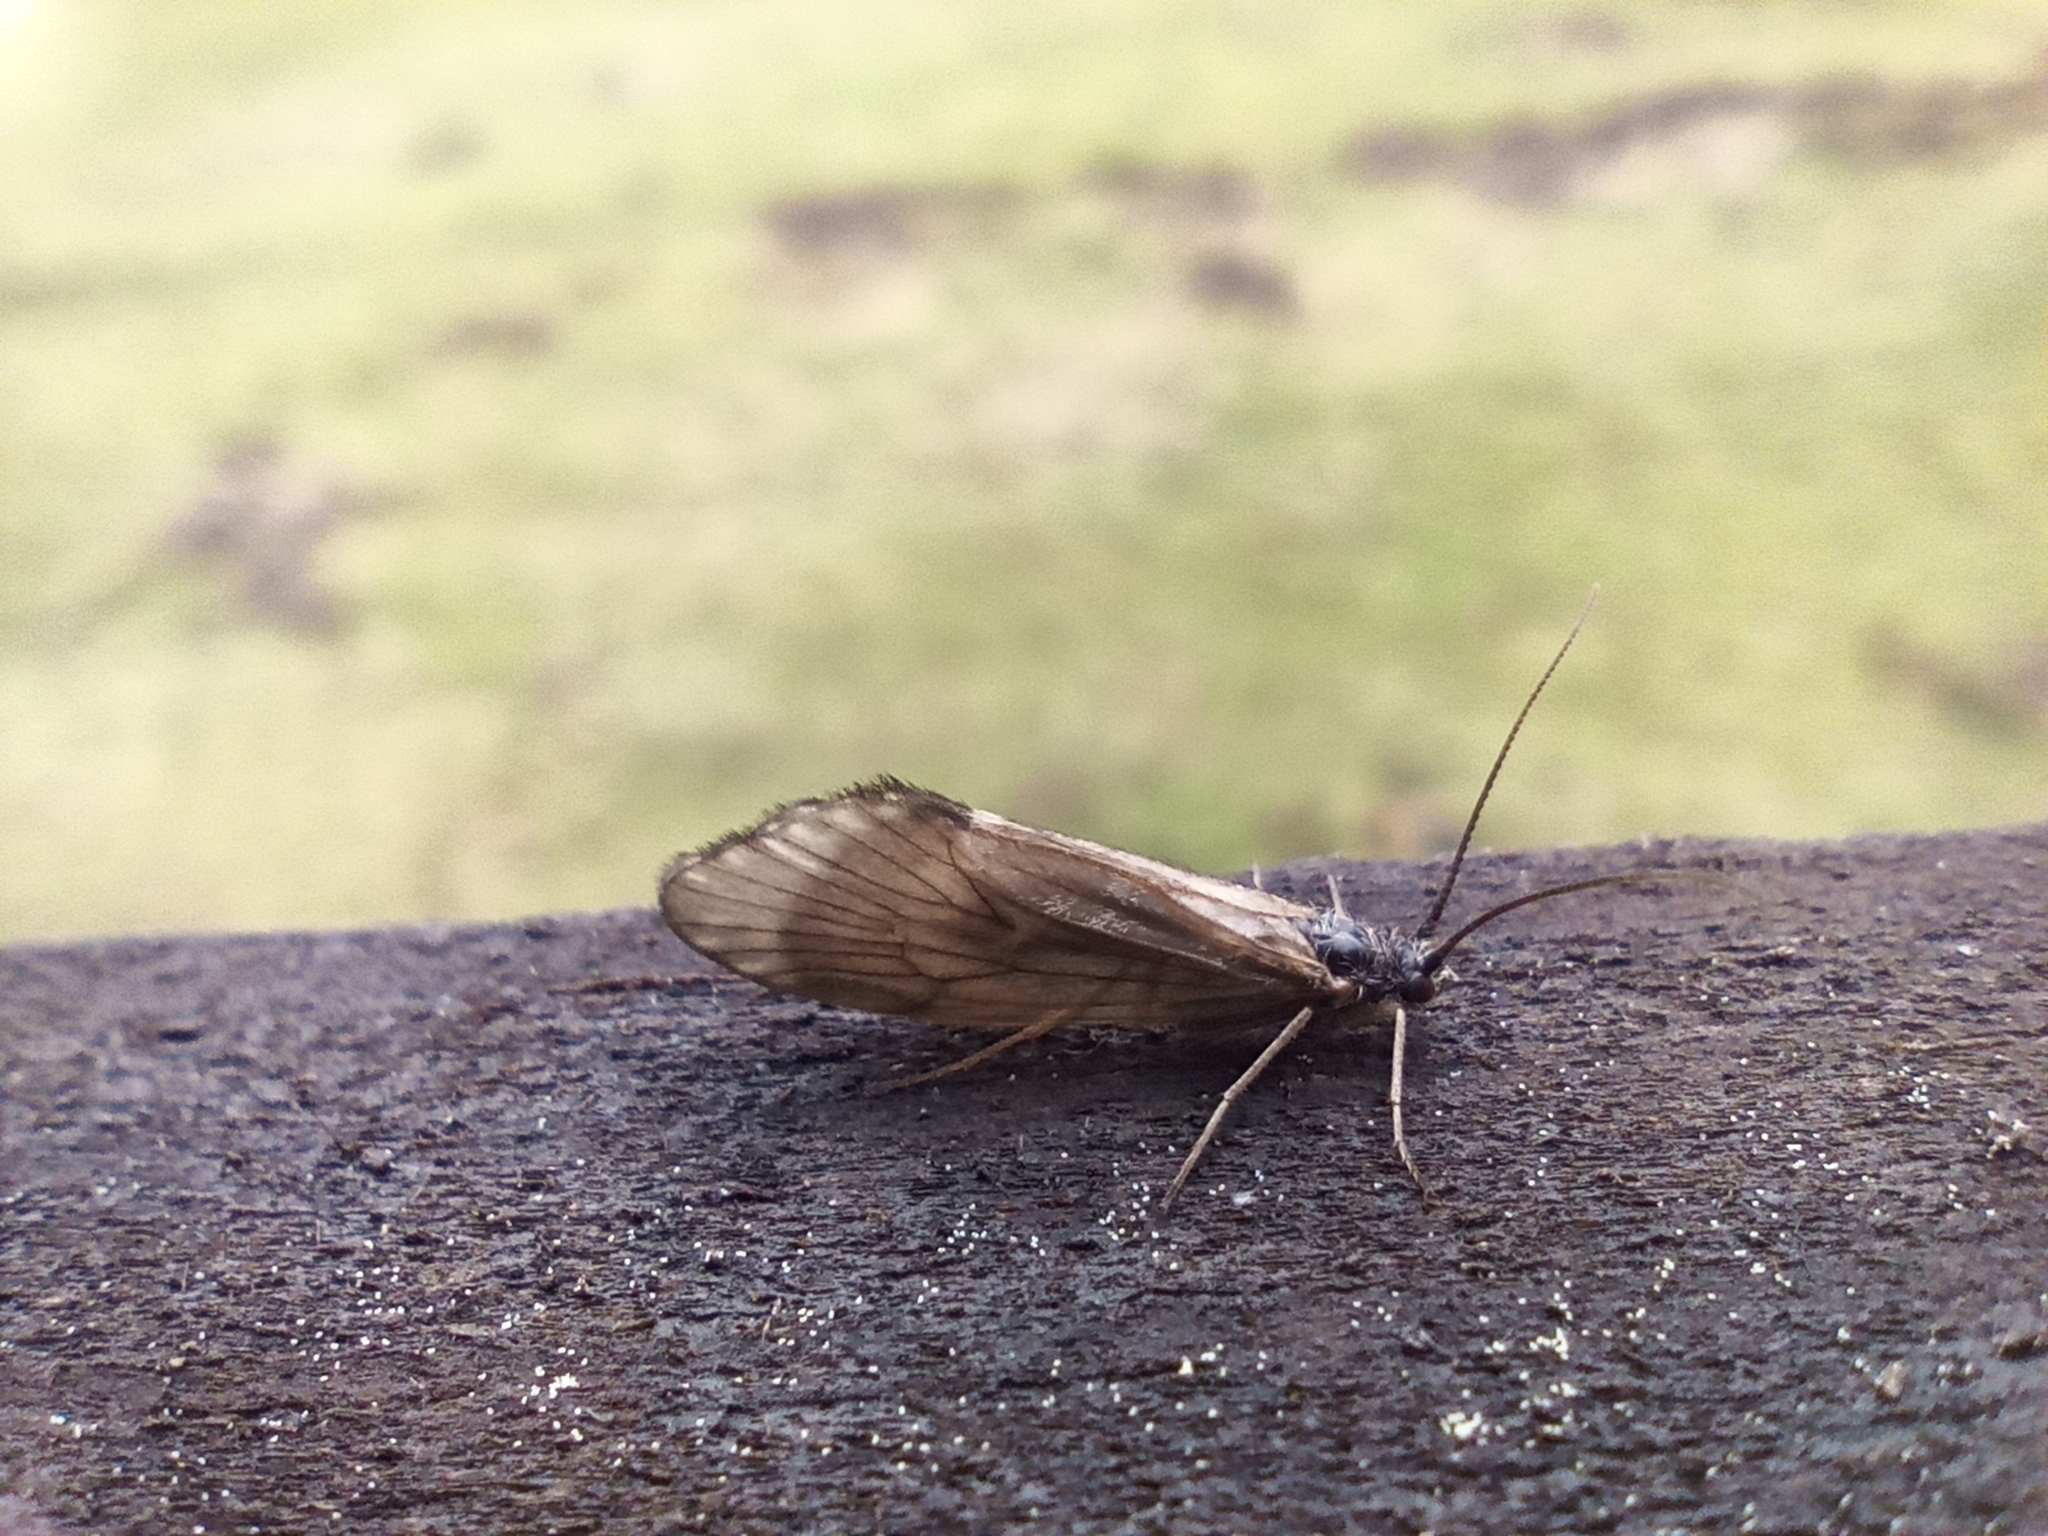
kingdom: Animalia
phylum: Arthropoda
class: Insecta
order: Trichoptera
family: Brachycentridae
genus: Brachycentrus
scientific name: Brachycentrus subnubilis
